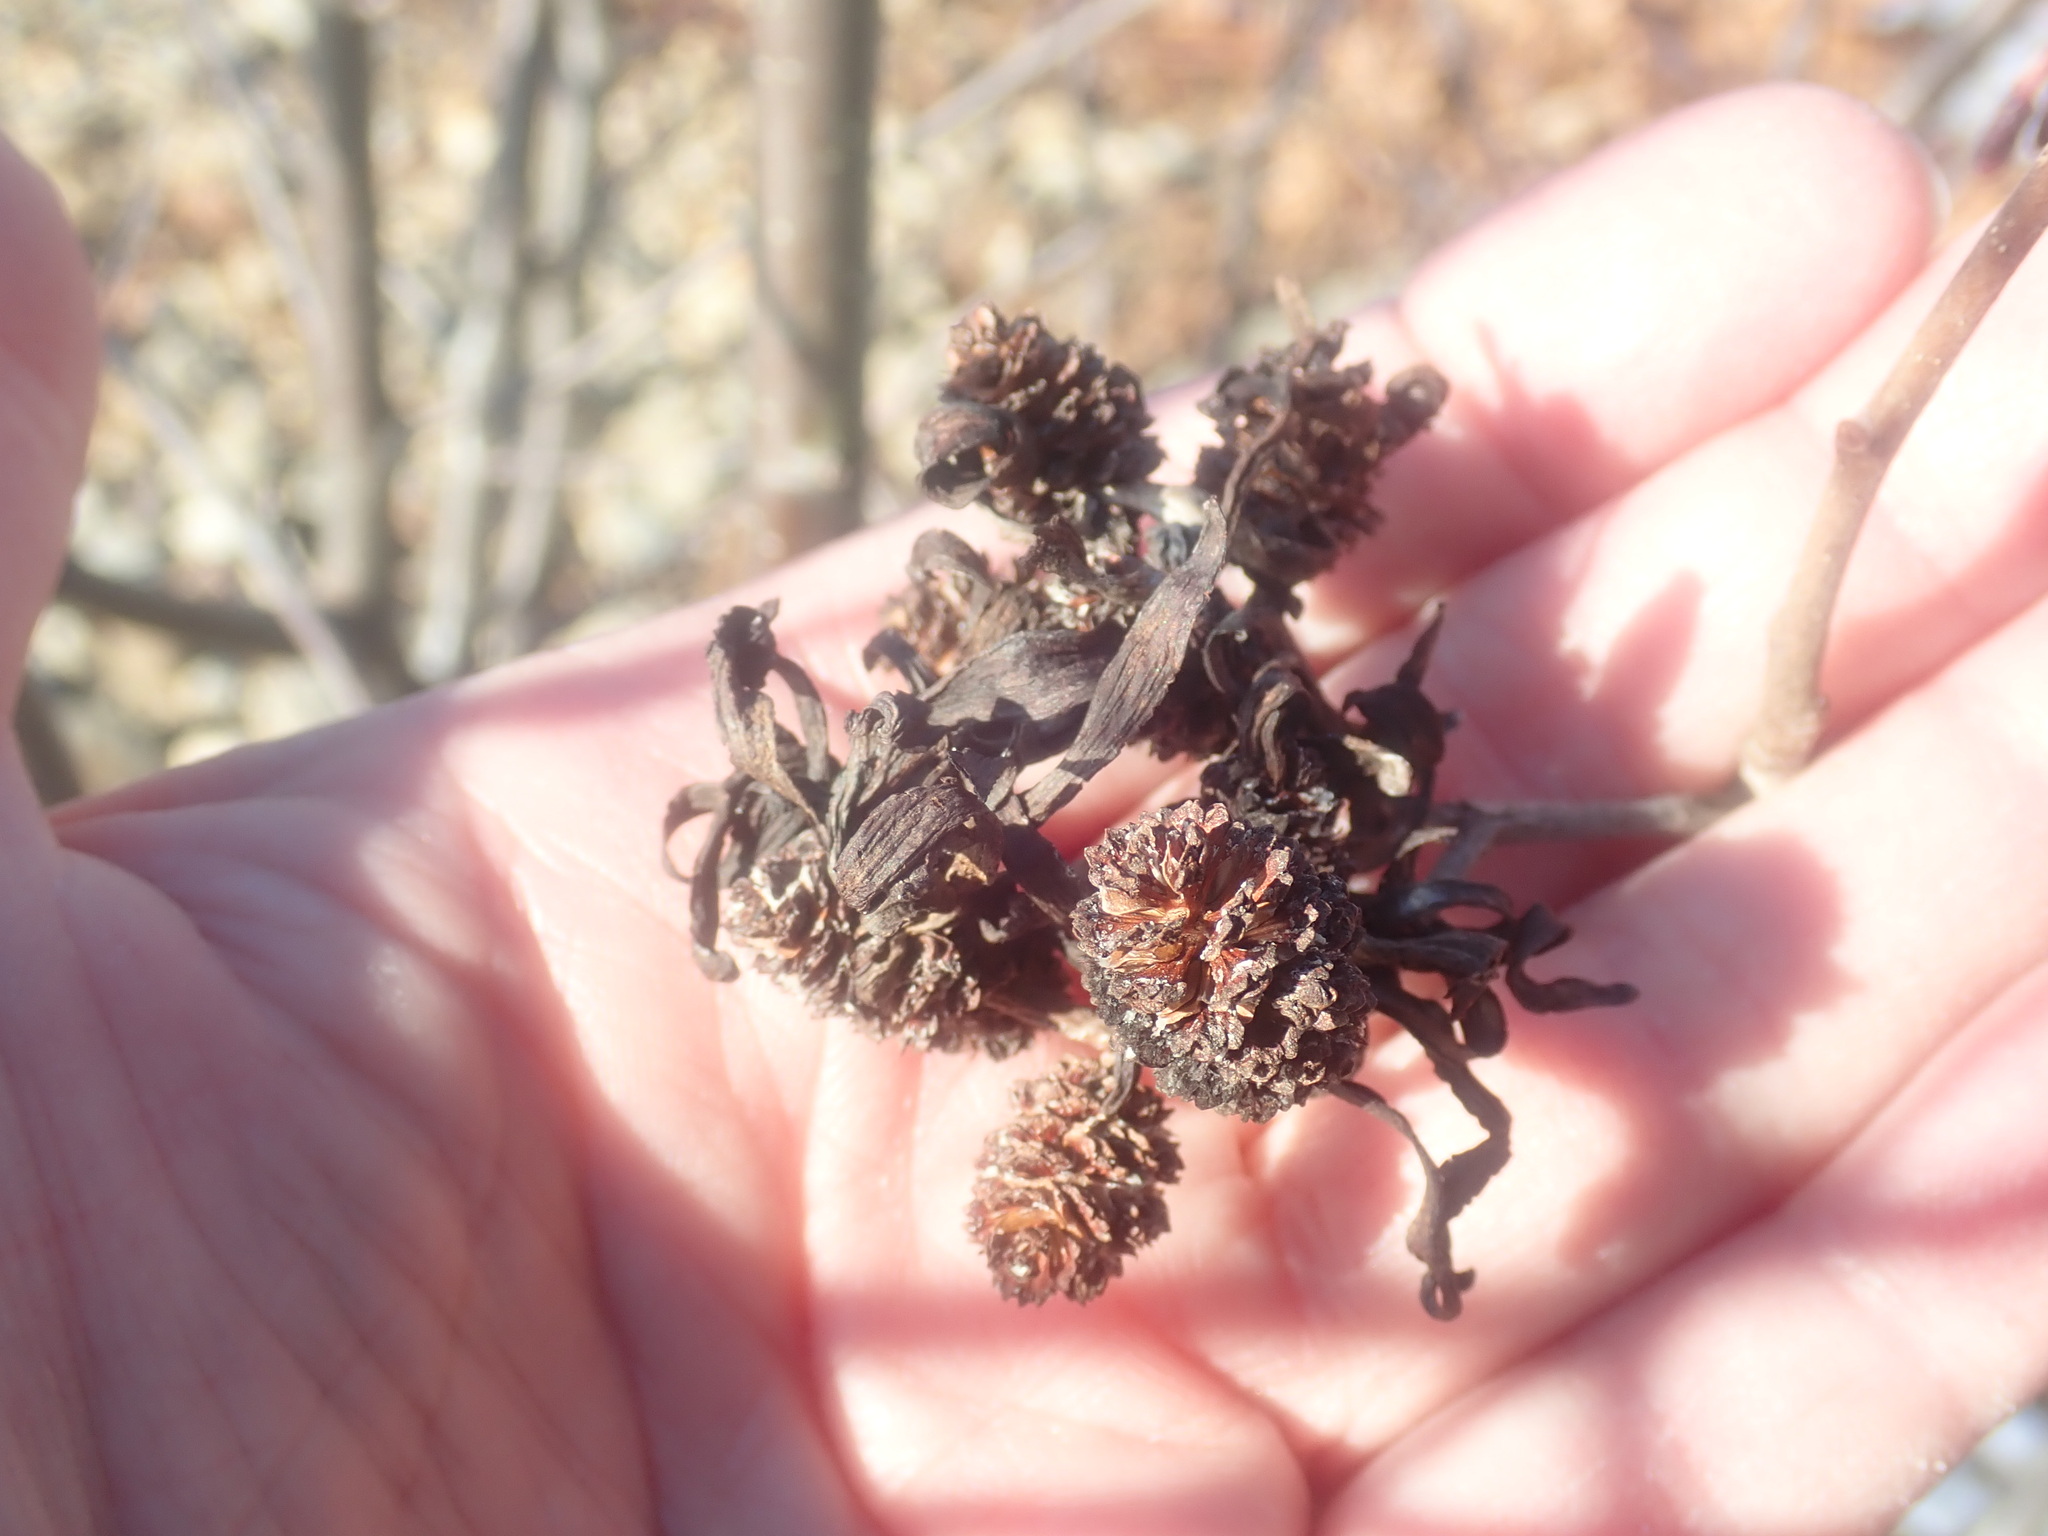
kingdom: Fungi
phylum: Ascomycota
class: Taphrinomycetes
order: Taphrinales
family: Taphrinaceae
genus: Taphrina
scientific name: Taphrina robinsoniana
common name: Eastern american alder tongue gall fungus
